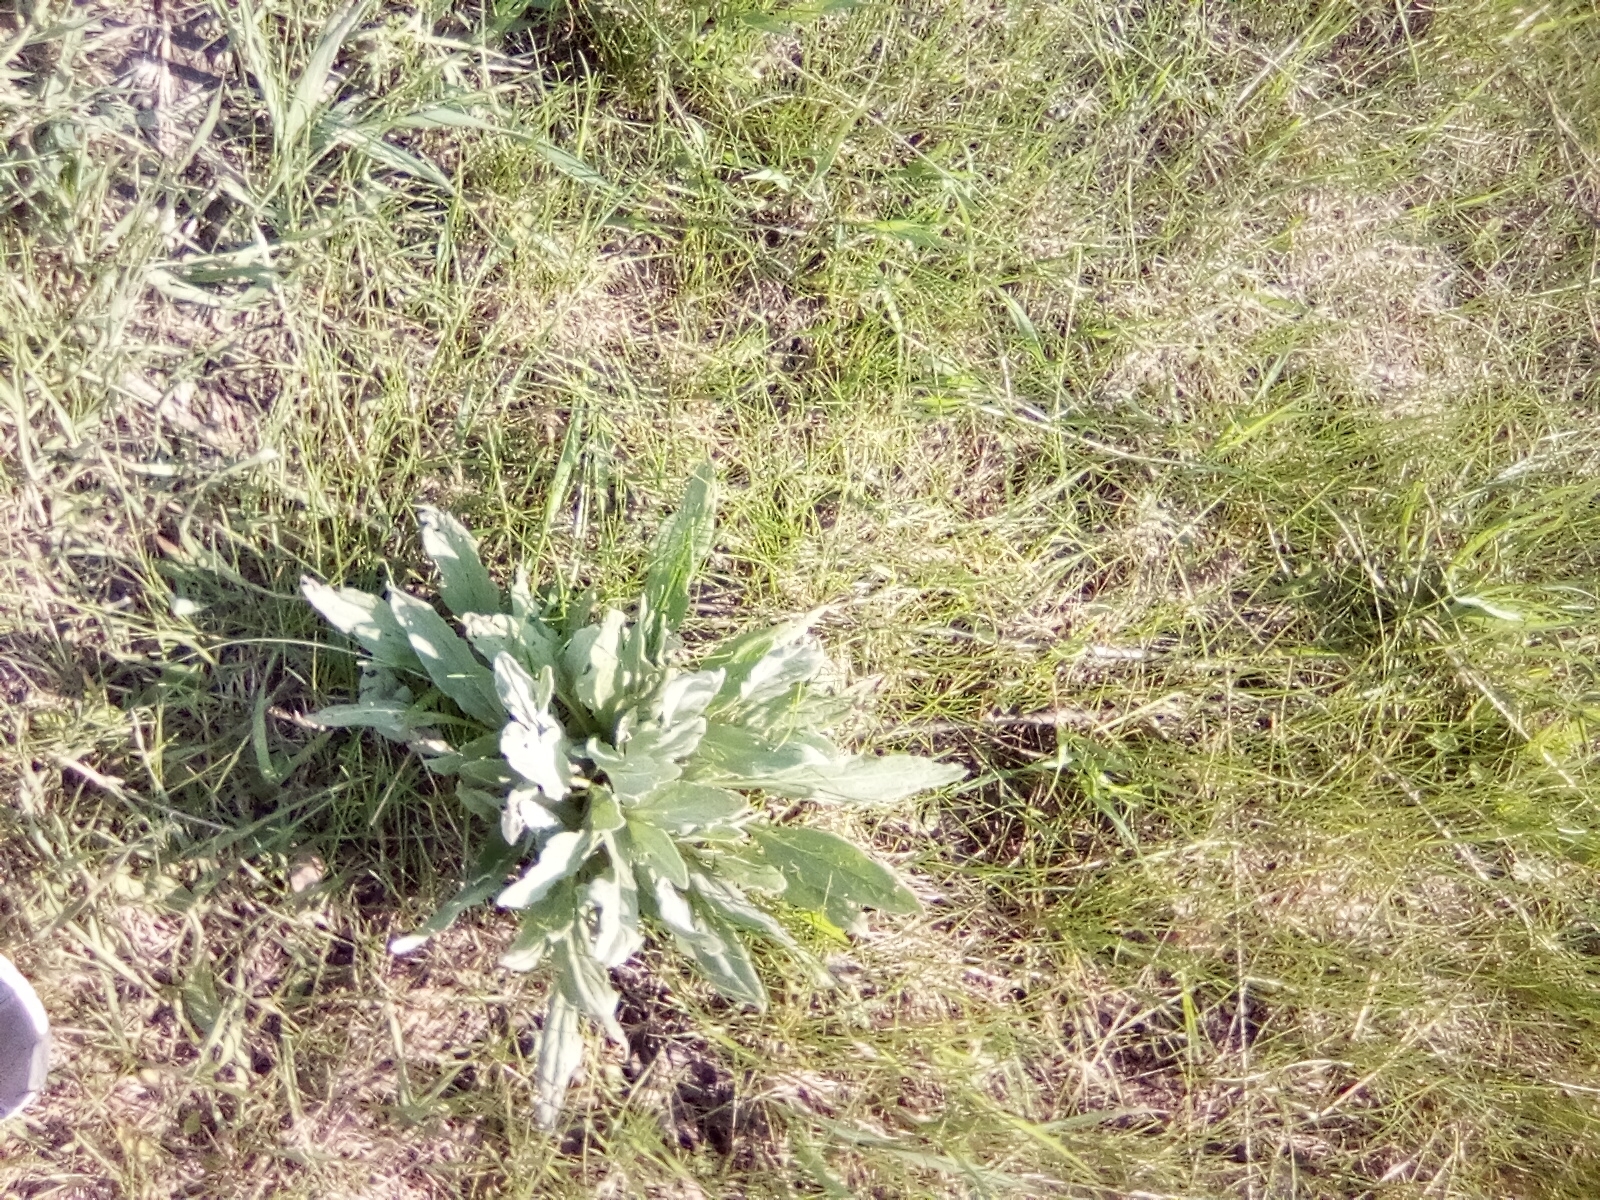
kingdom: Plantae
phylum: Tracheophyta
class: Magnoliopsida
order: Boraginales
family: Boraginaceae
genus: Cynoglossum
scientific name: Cynoglossum officinale
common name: Hound's-tongue
